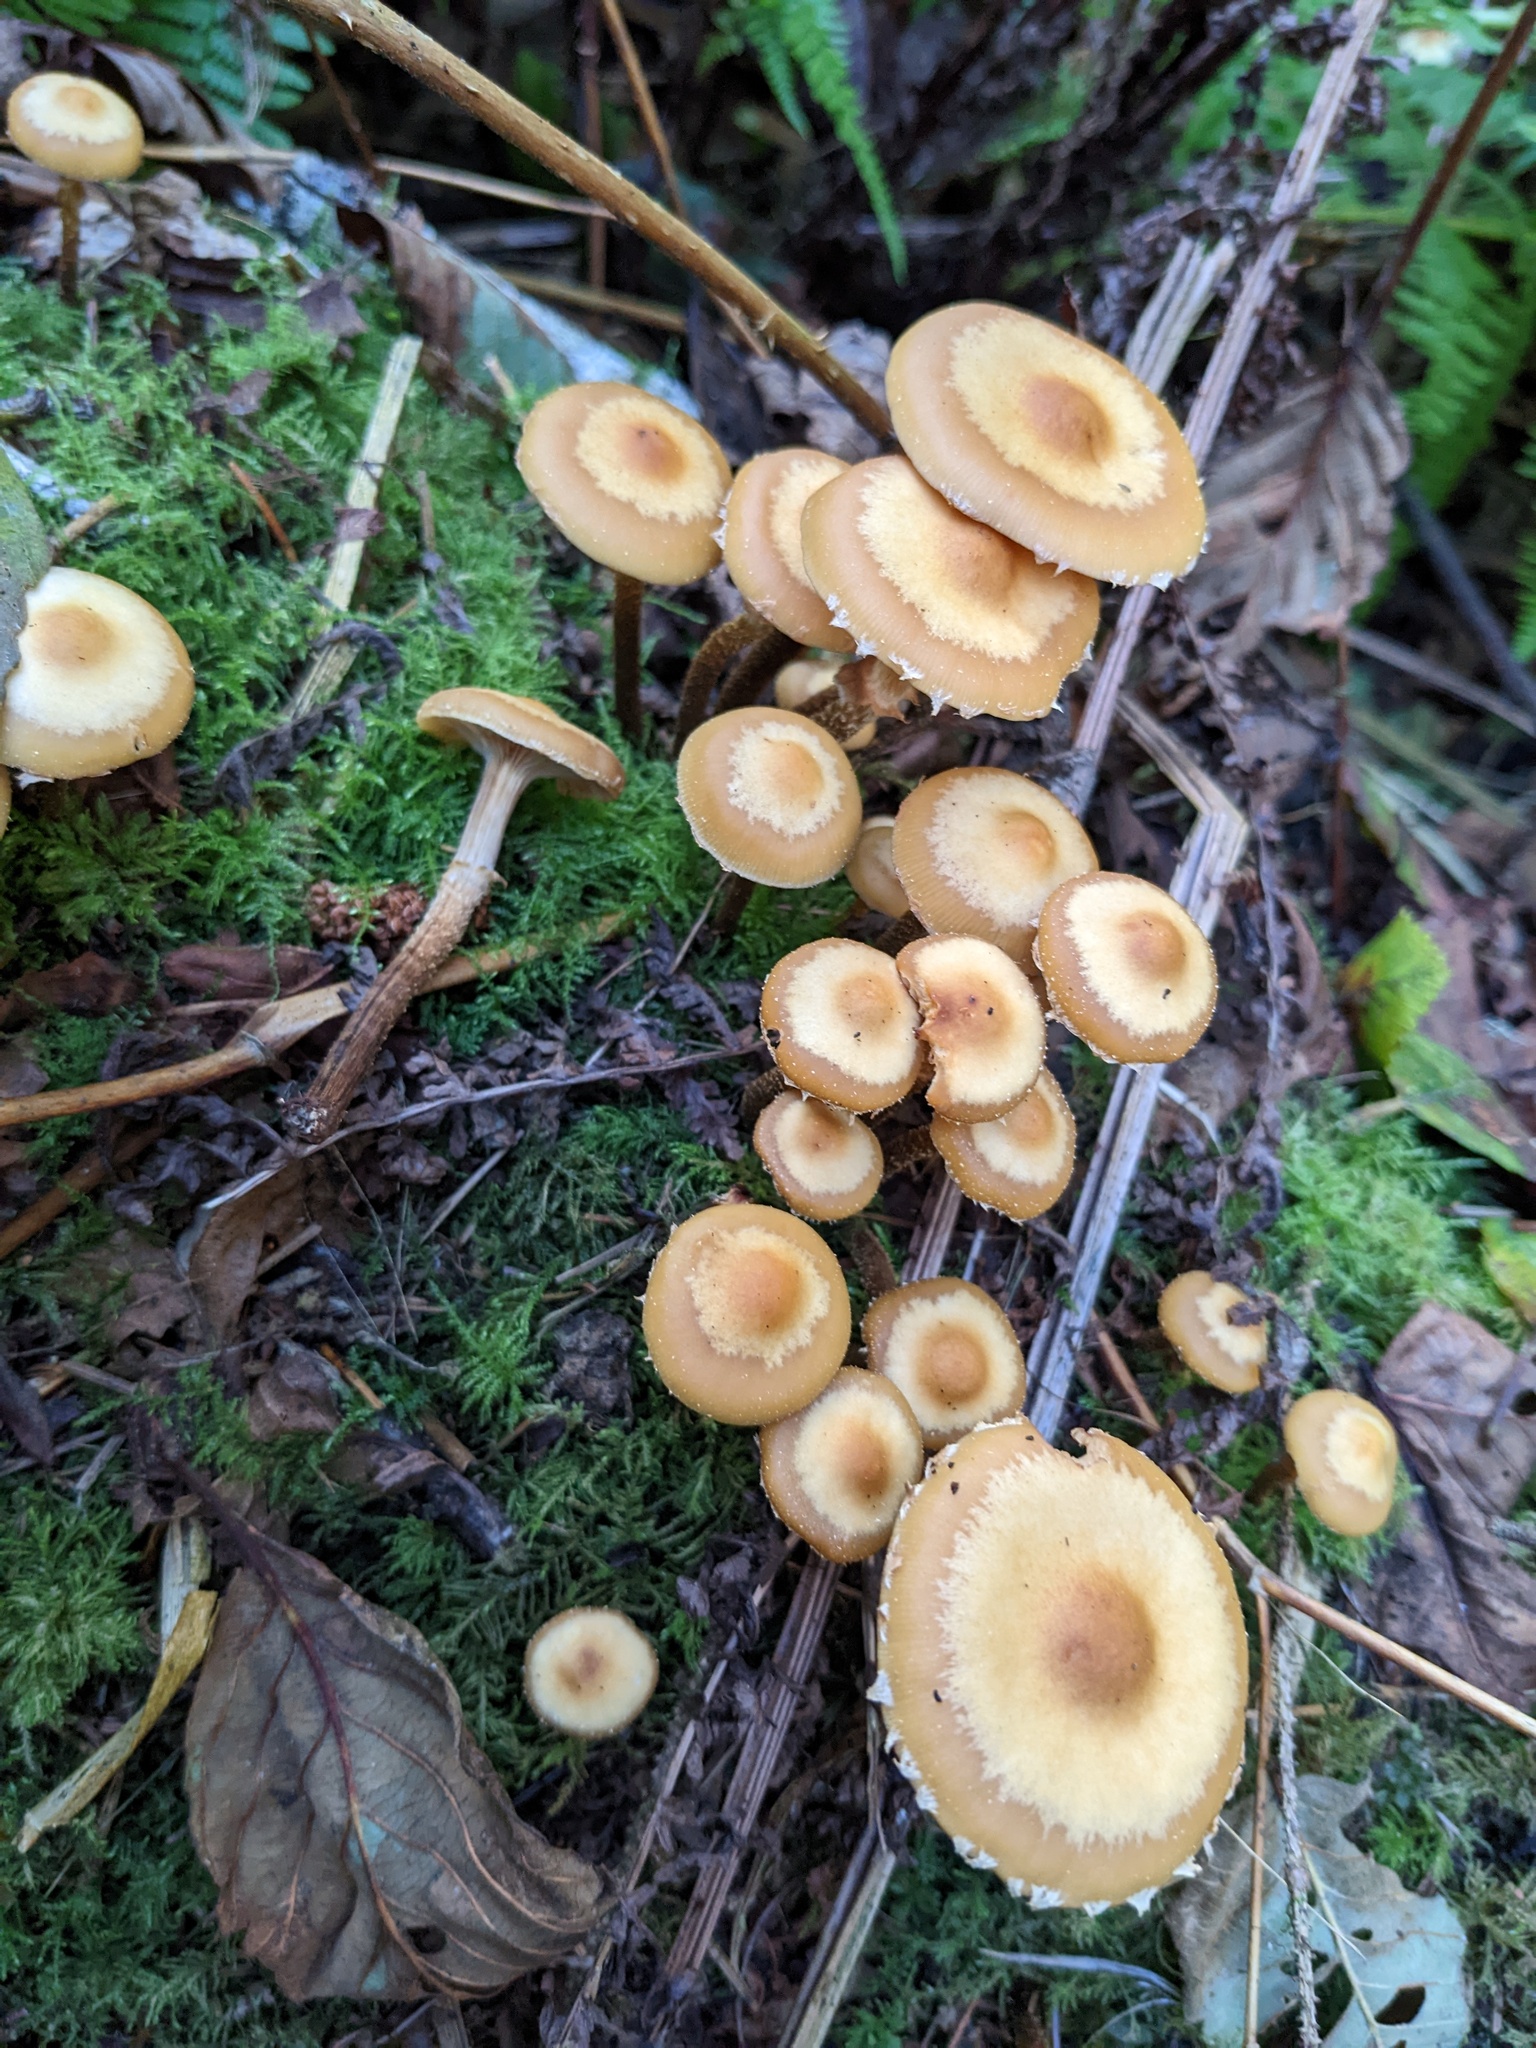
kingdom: Fungi
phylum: Basidiomycota
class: Agaricomycetes
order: Agaricales
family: Strophariaceae
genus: Kuehneromyces
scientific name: Kuehneromyces mutabilis
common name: Sheathed woodtuft
